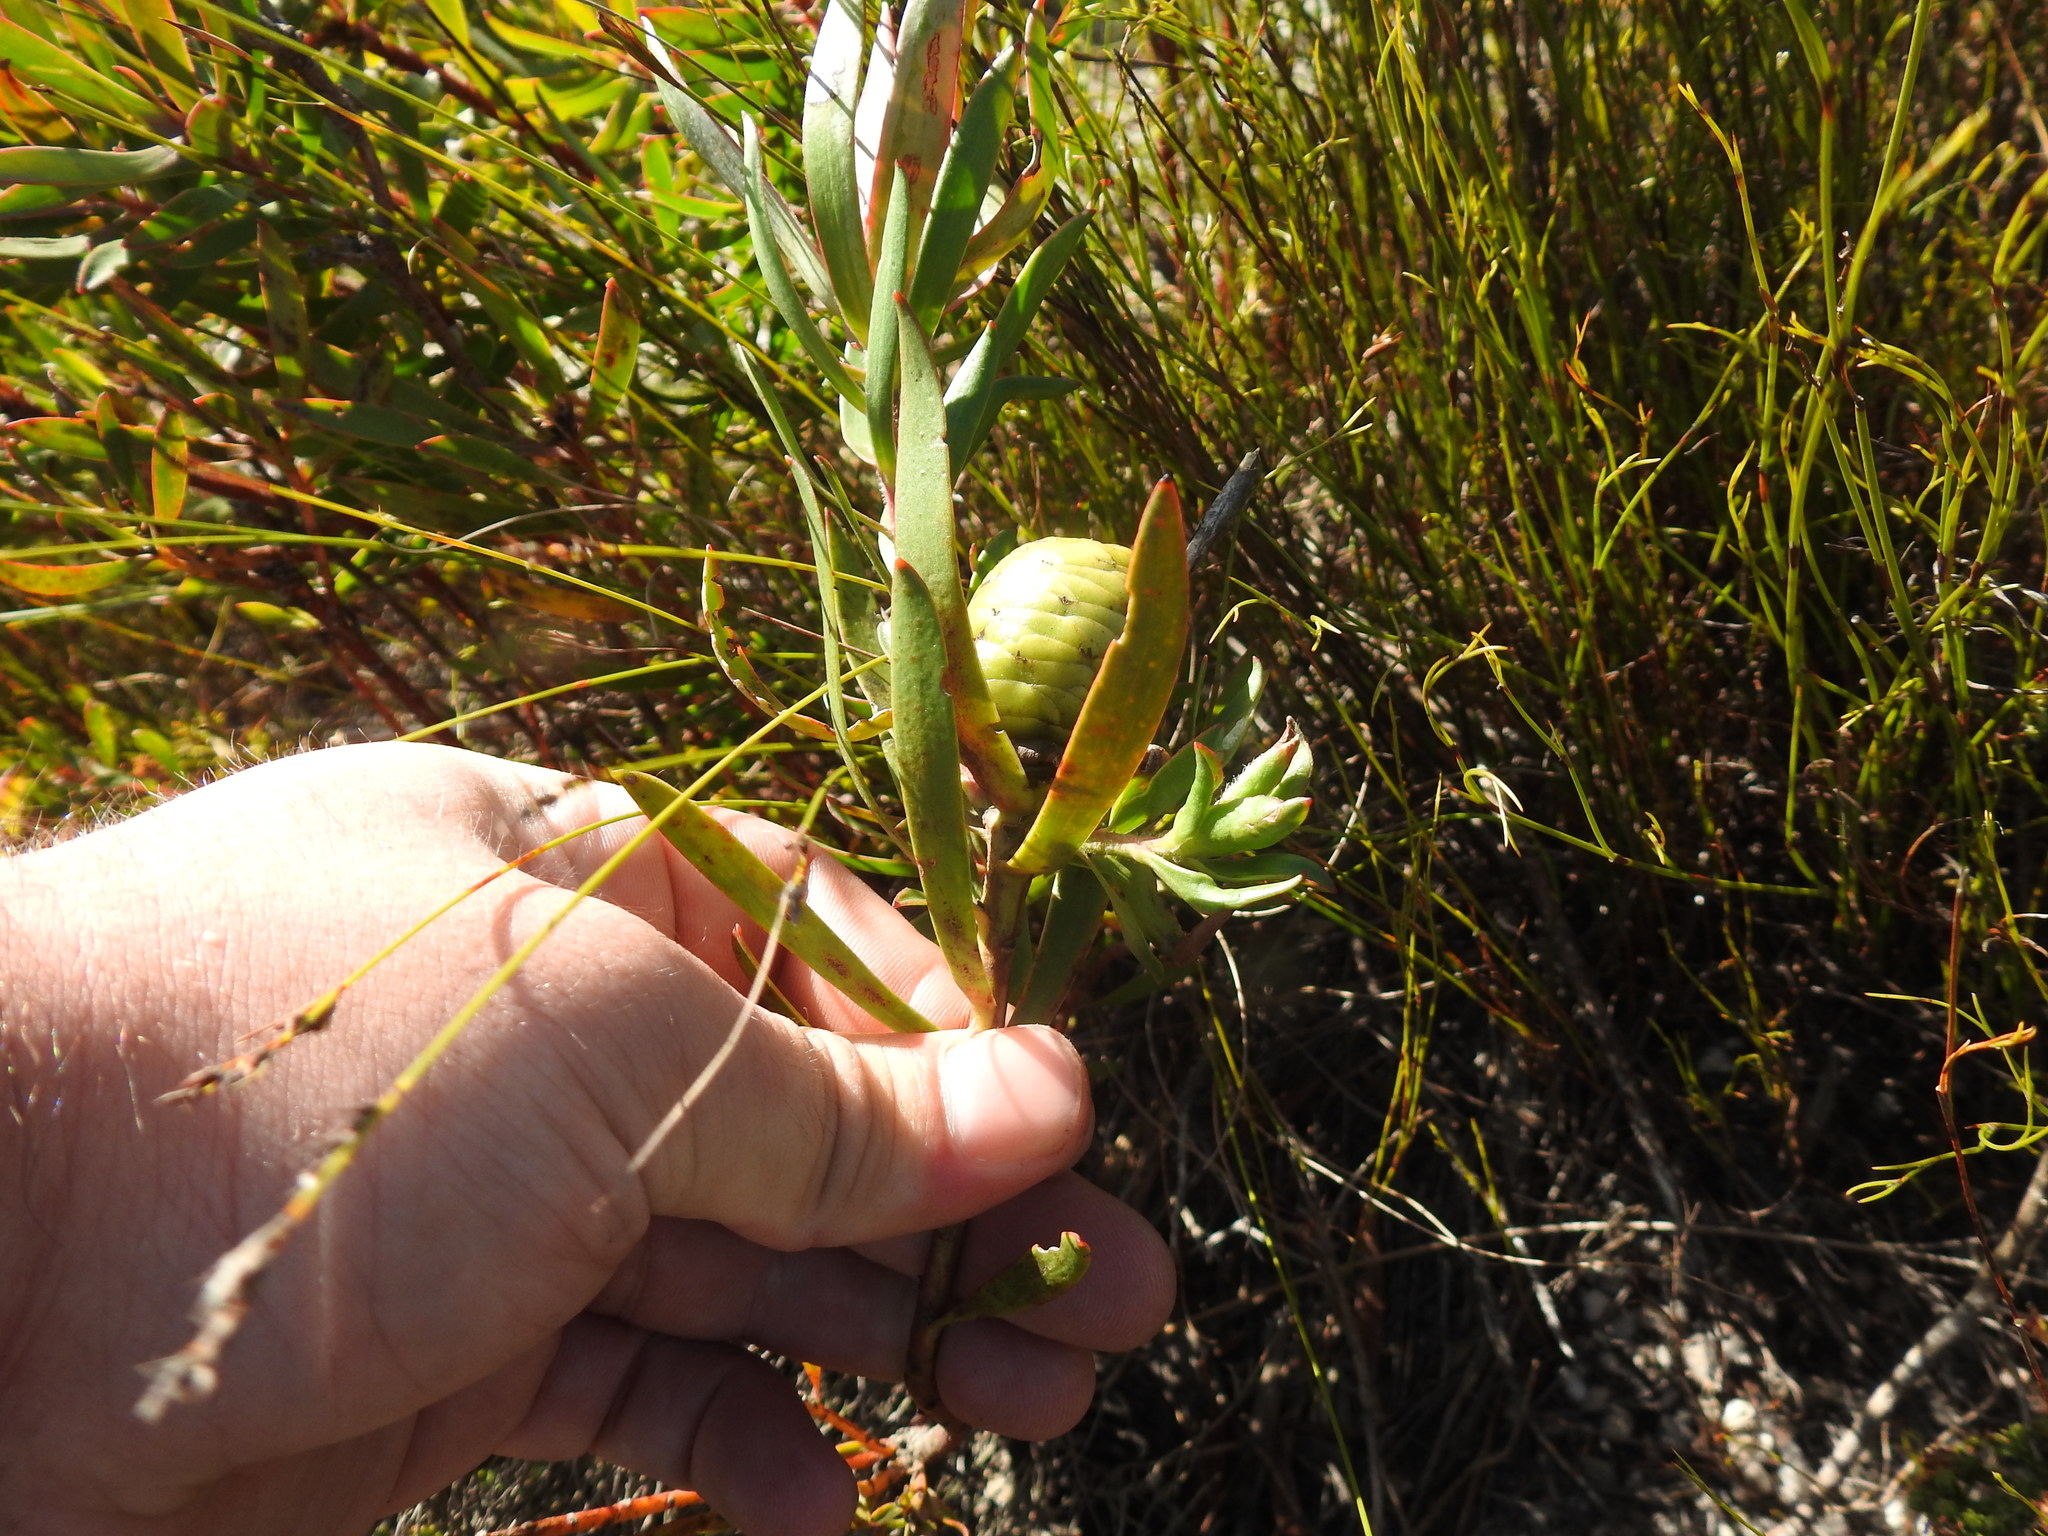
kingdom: Plantae
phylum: Tracheophyta
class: Magnoliopsida
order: Proteales
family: Proteaceae
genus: Leucadendron
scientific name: Leucadendron spissifolium
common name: Spear-leaf conebush
